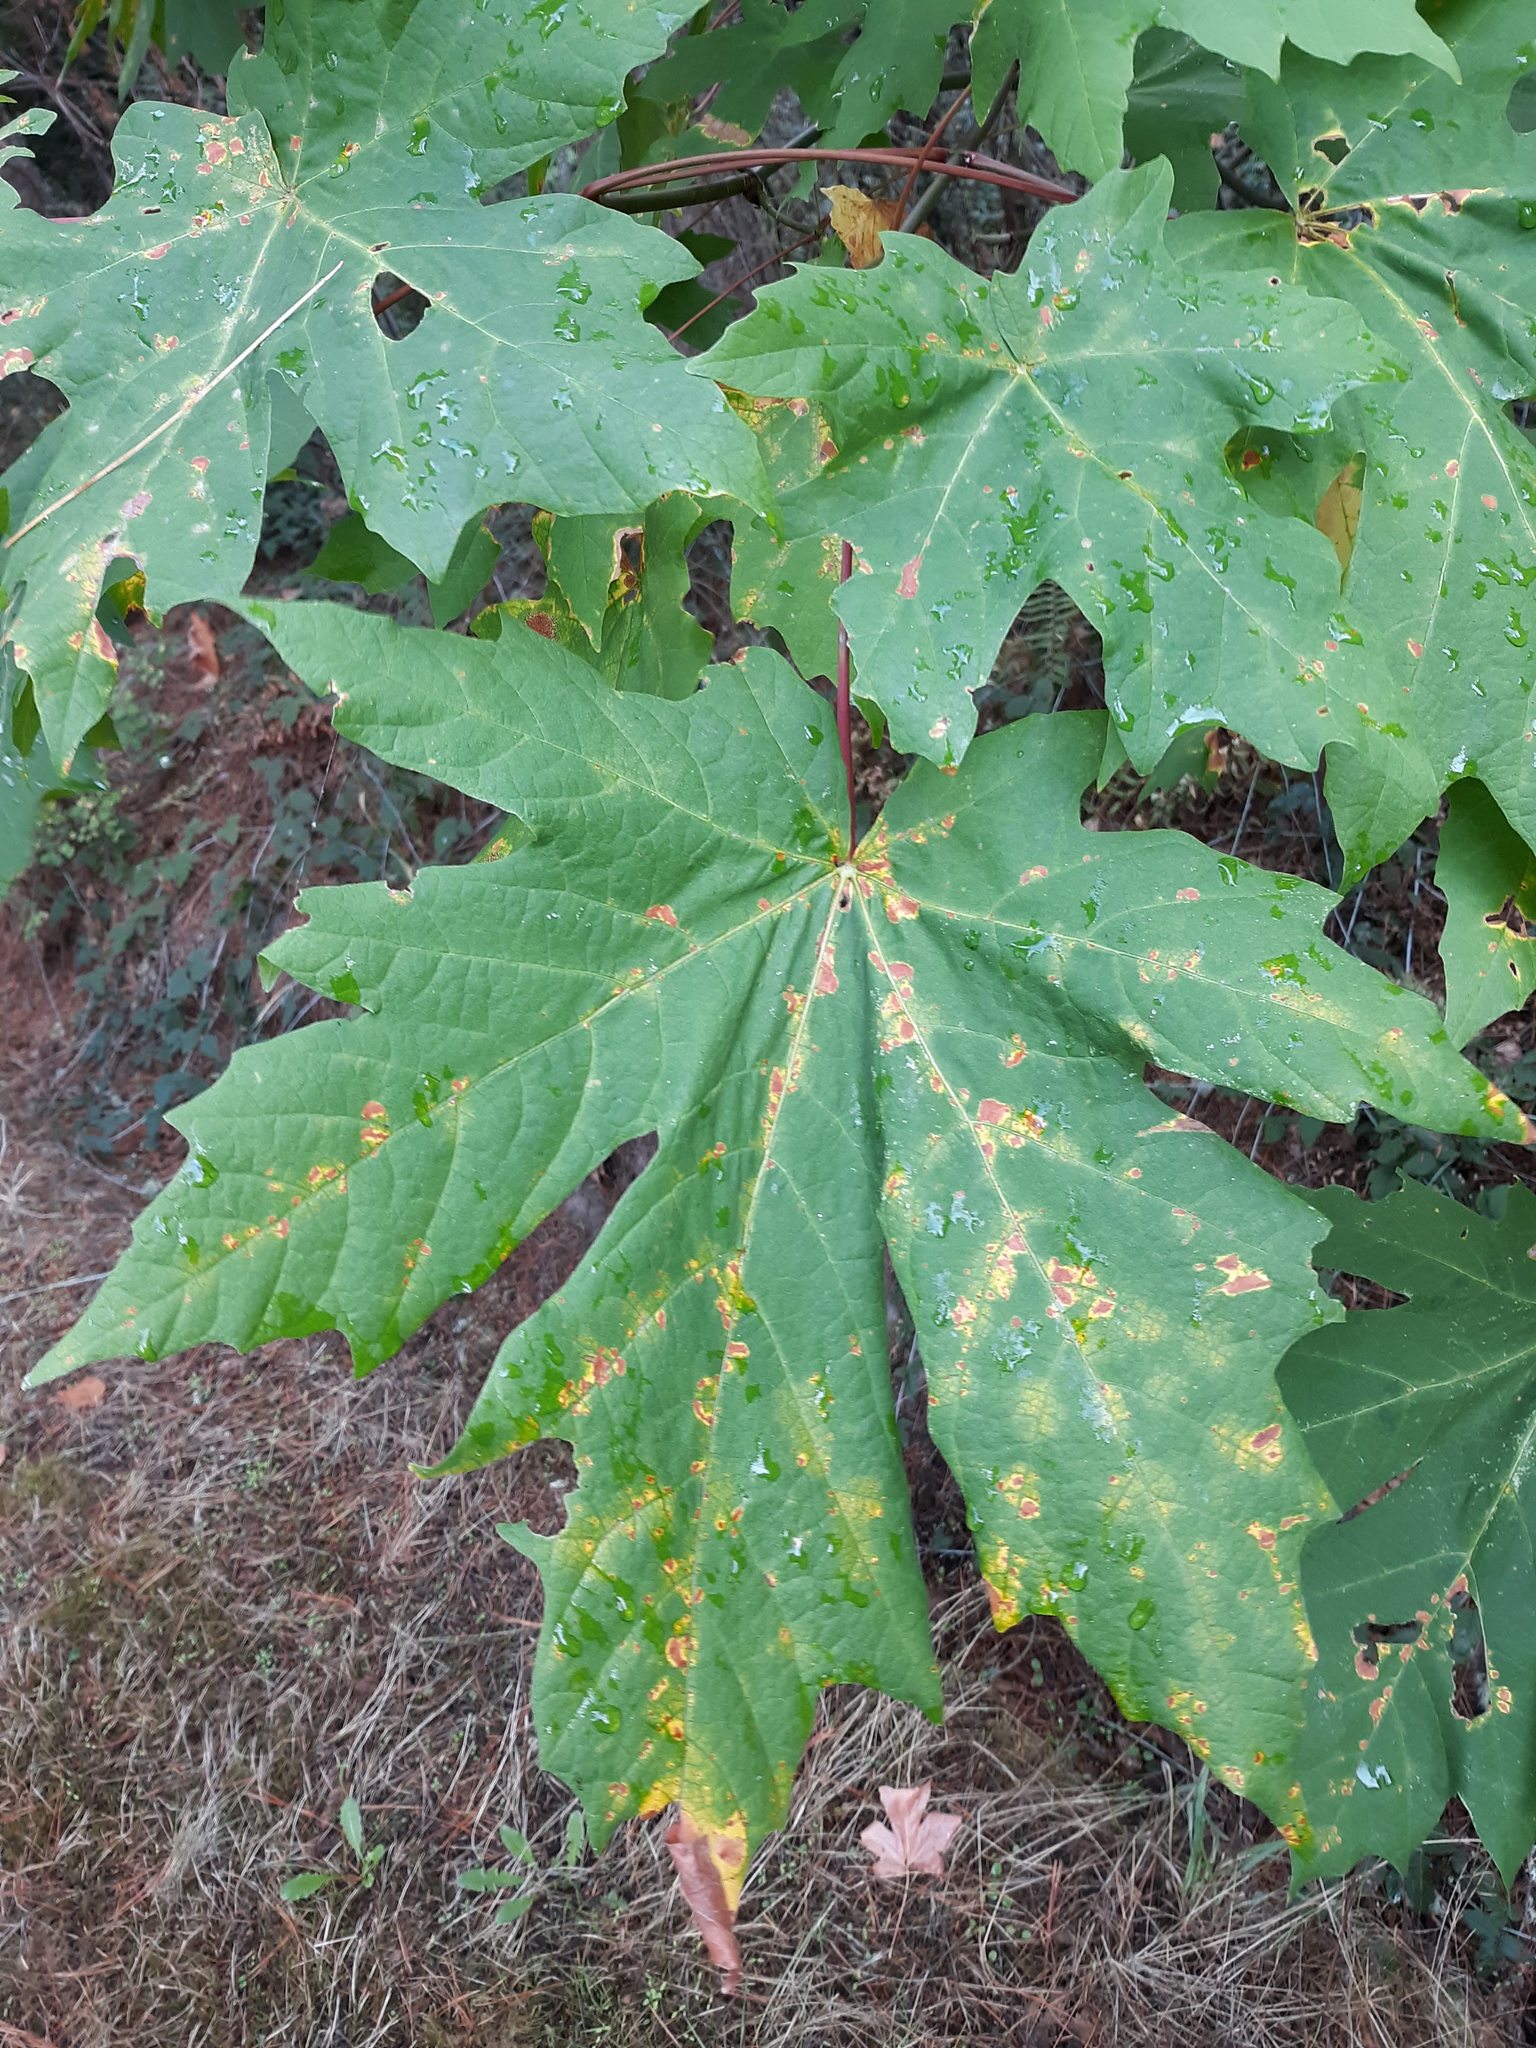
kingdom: Plantae
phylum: Tracheophyta
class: Magnoliopsida
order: Sapindales
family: Sapindaceae
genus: Acer
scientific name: Acer macrophyllum
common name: Oregon maple
